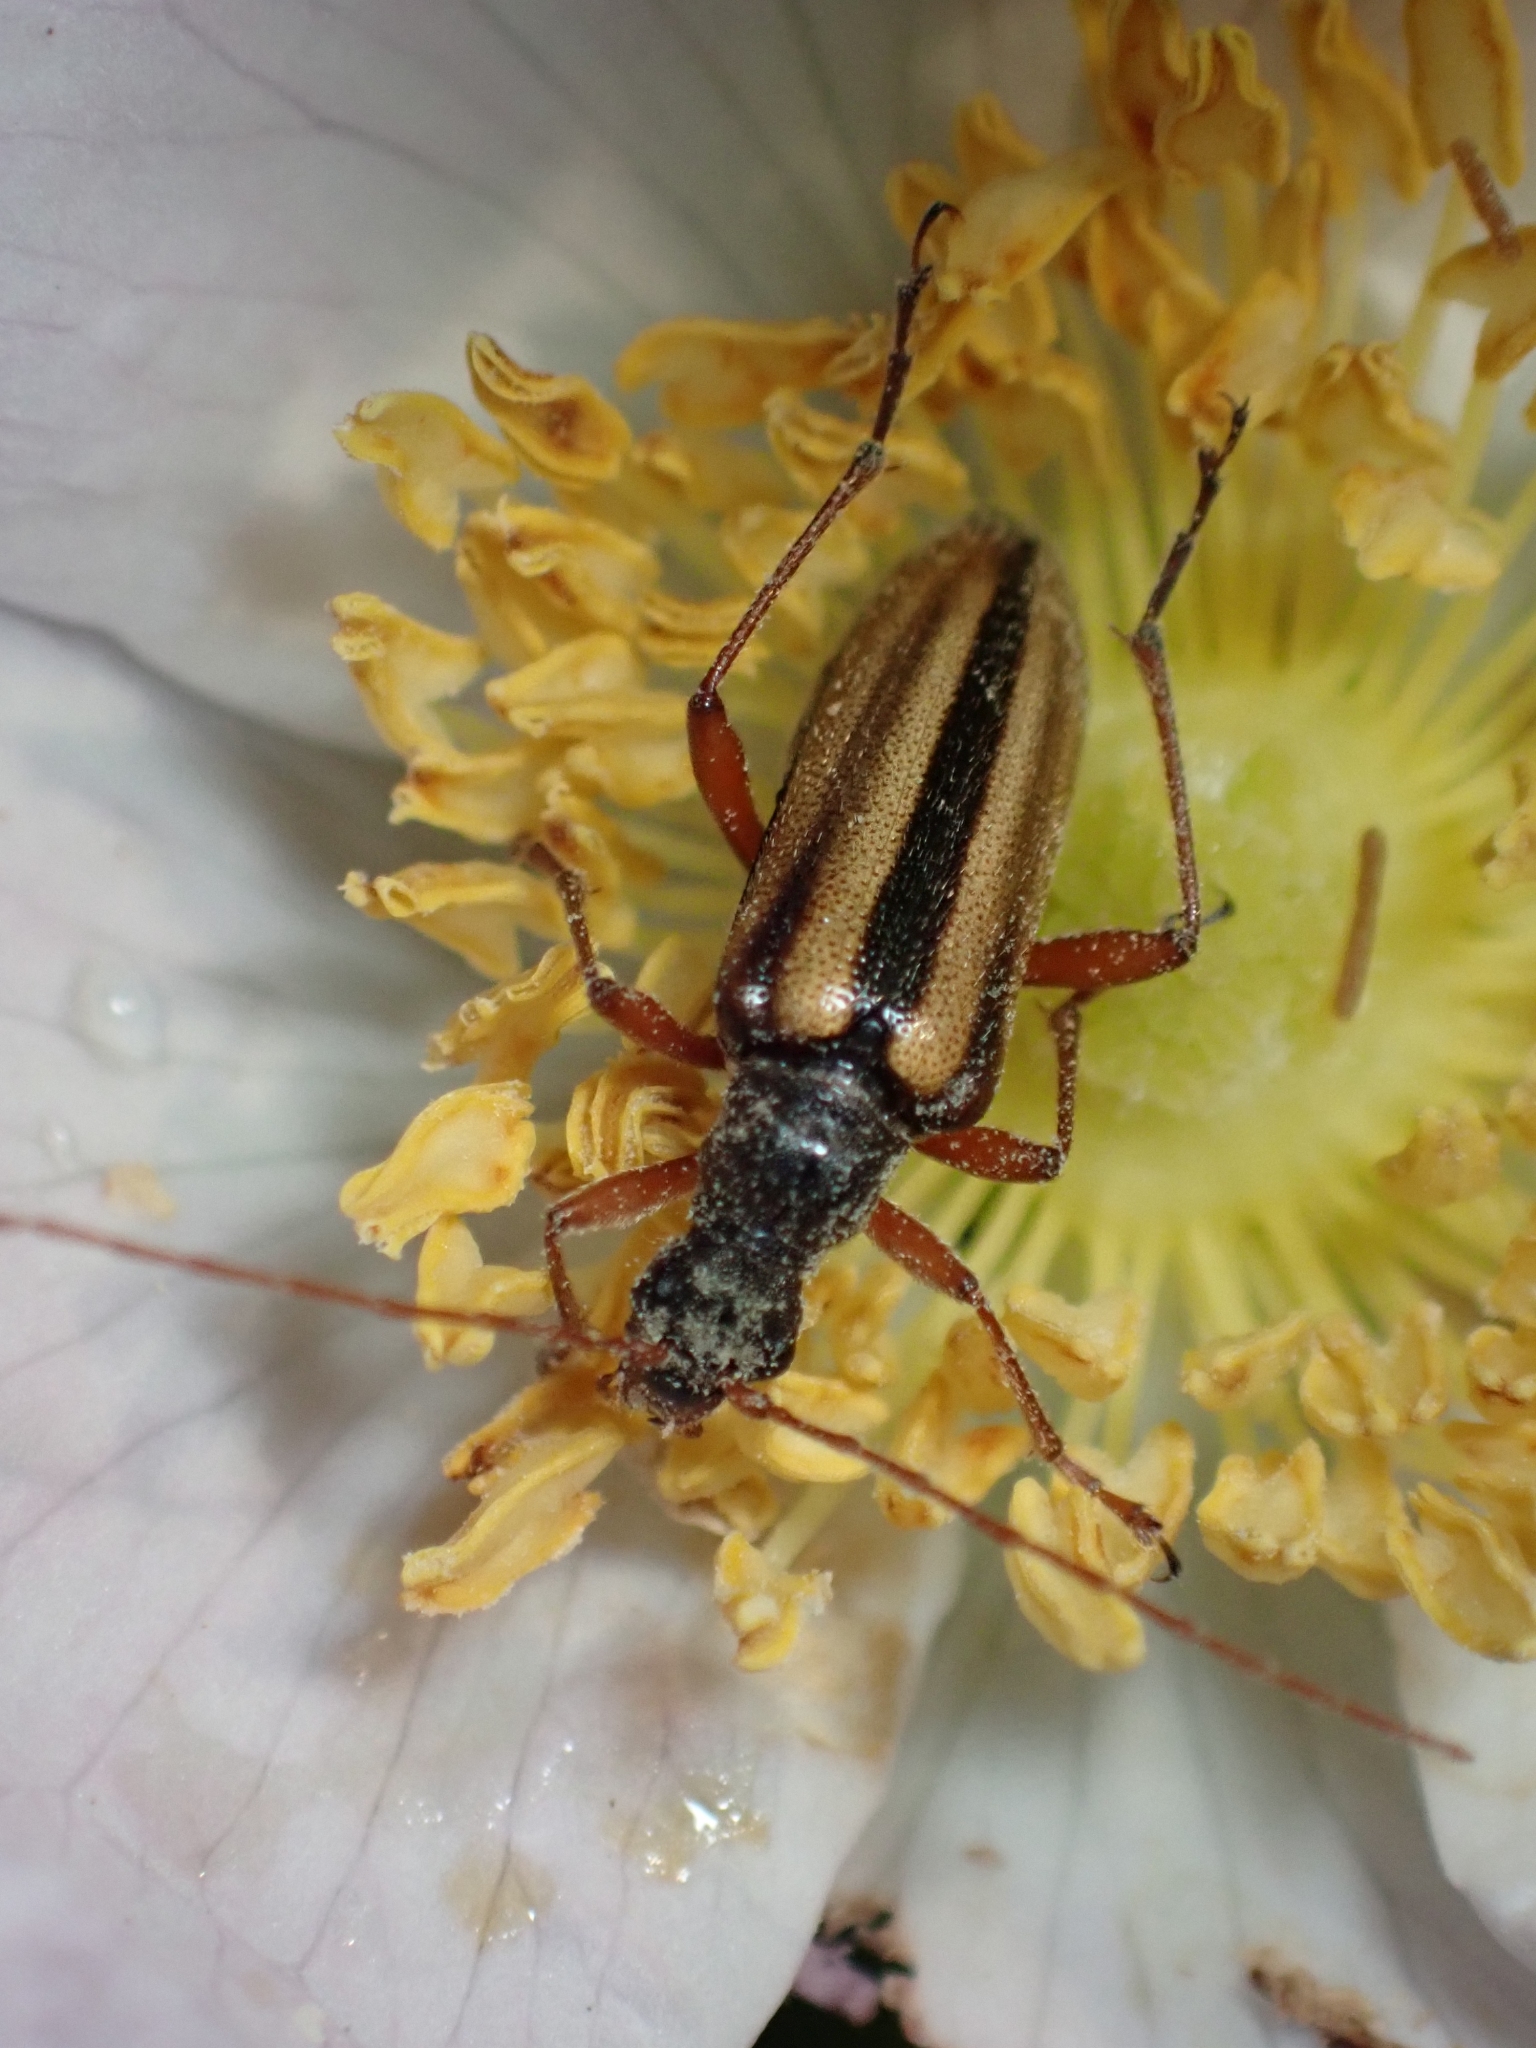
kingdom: Animalia
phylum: Arthropoda
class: Insecta
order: Coleoptera
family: Cerambycidae
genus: Cortodera
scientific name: Cortodera longicornis
